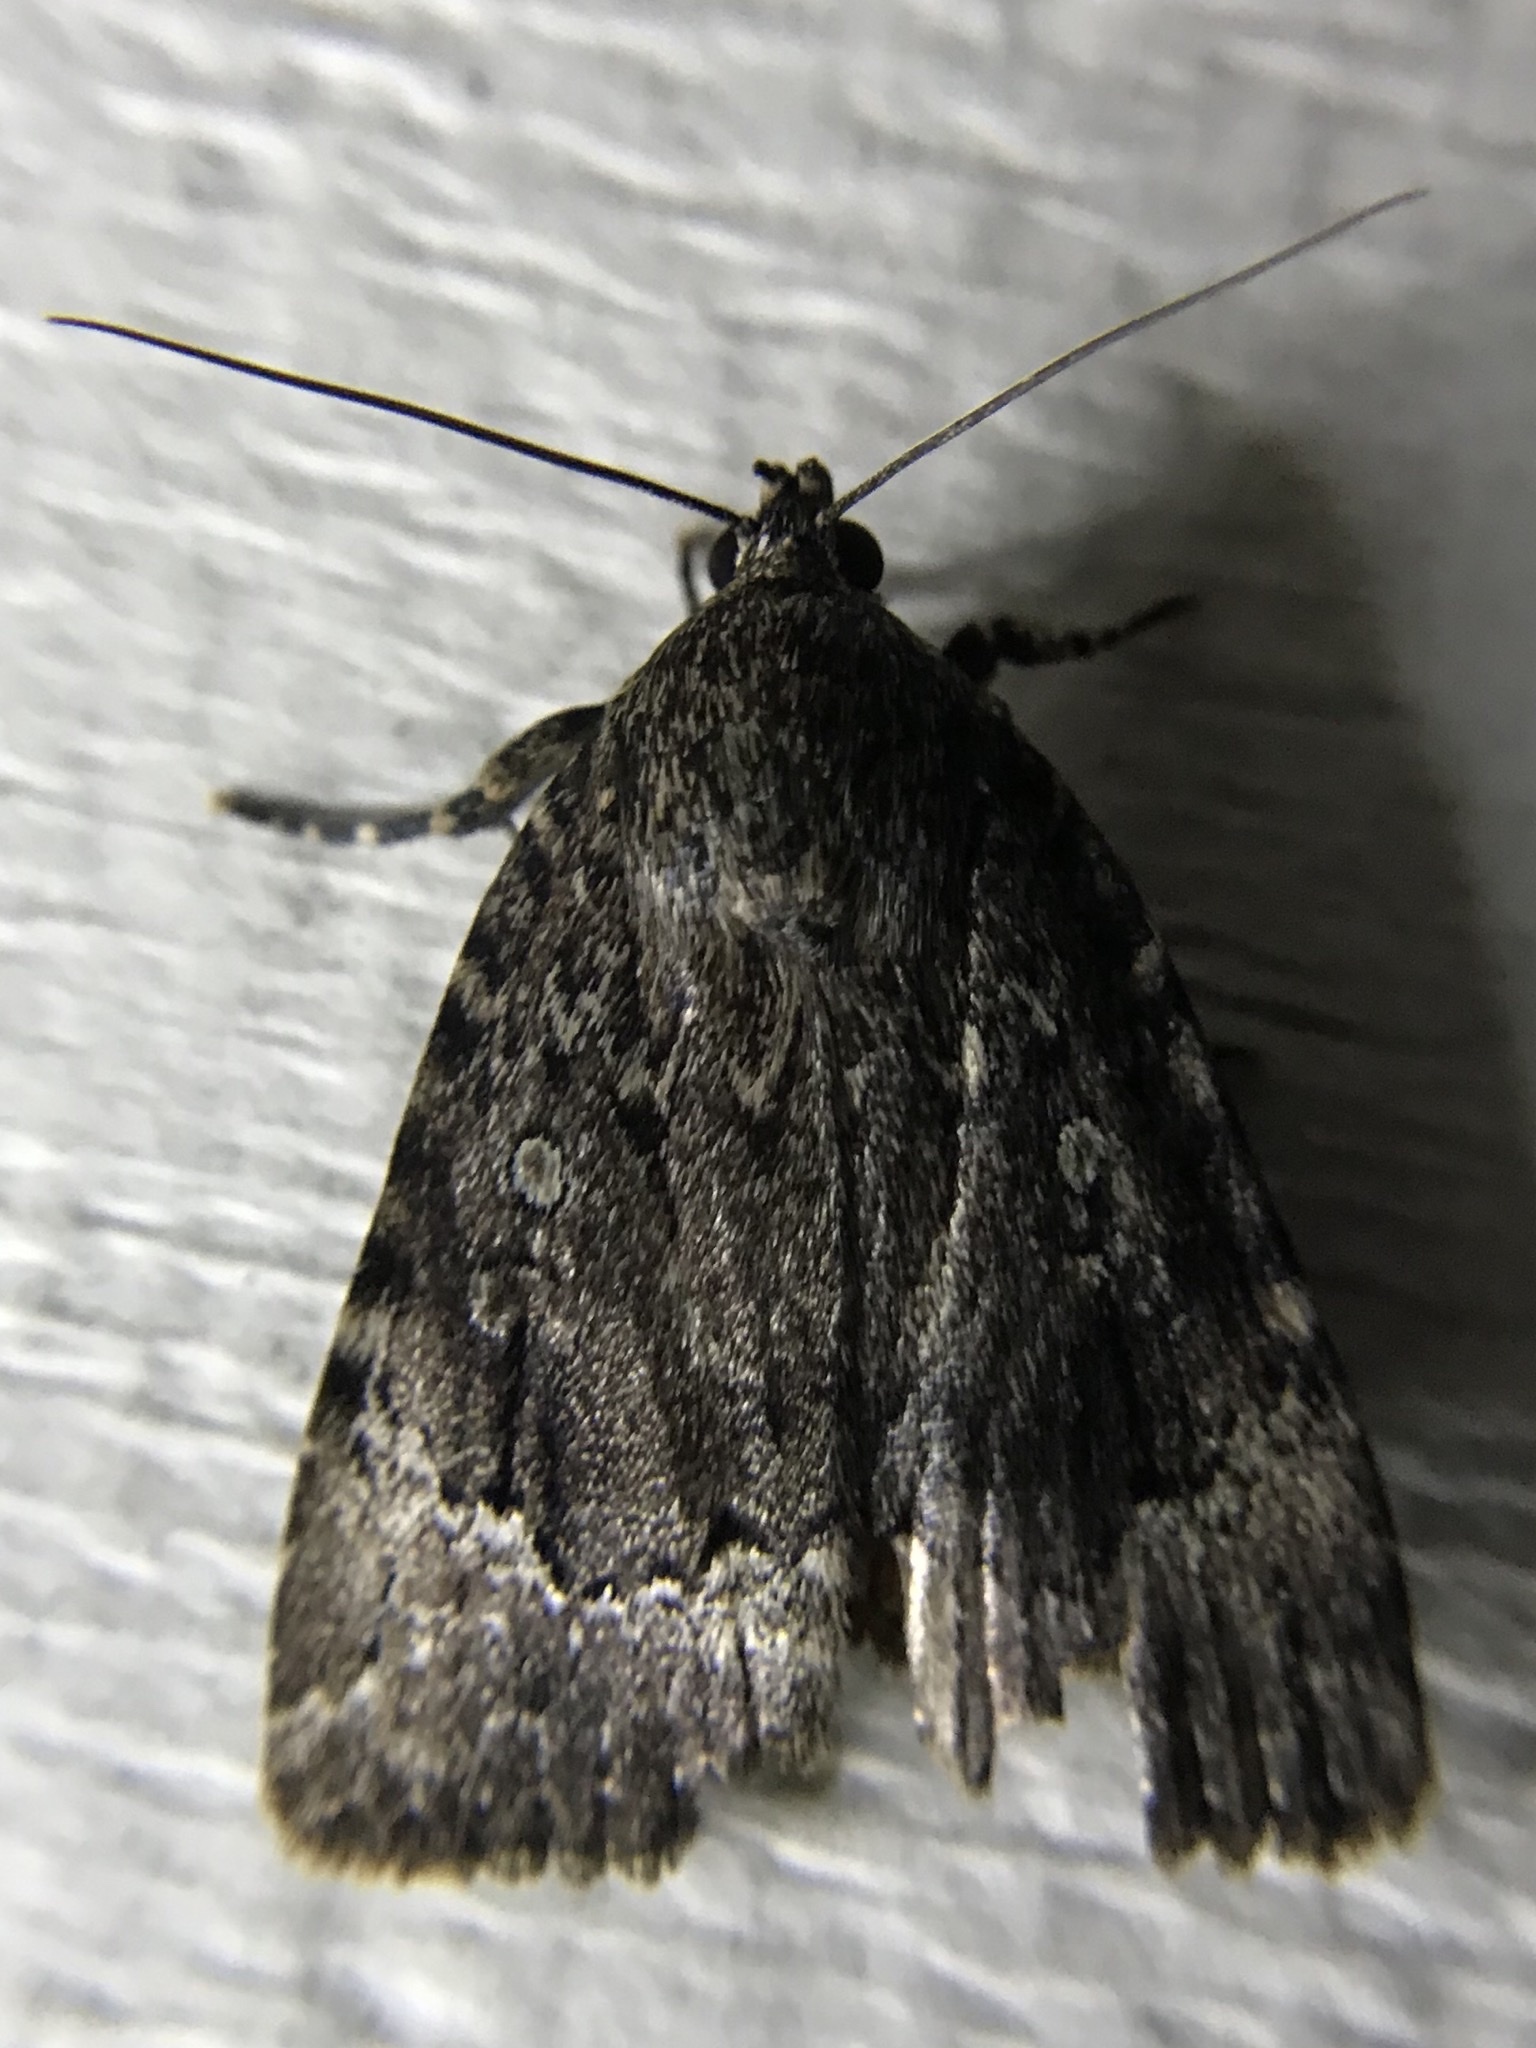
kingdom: Animalia
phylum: Arthropoda
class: Insecta
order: Lepidoptera
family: Noctuidae
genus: Amphipyra
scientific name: Amphipyra pyramidoides
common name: American copper underwing
